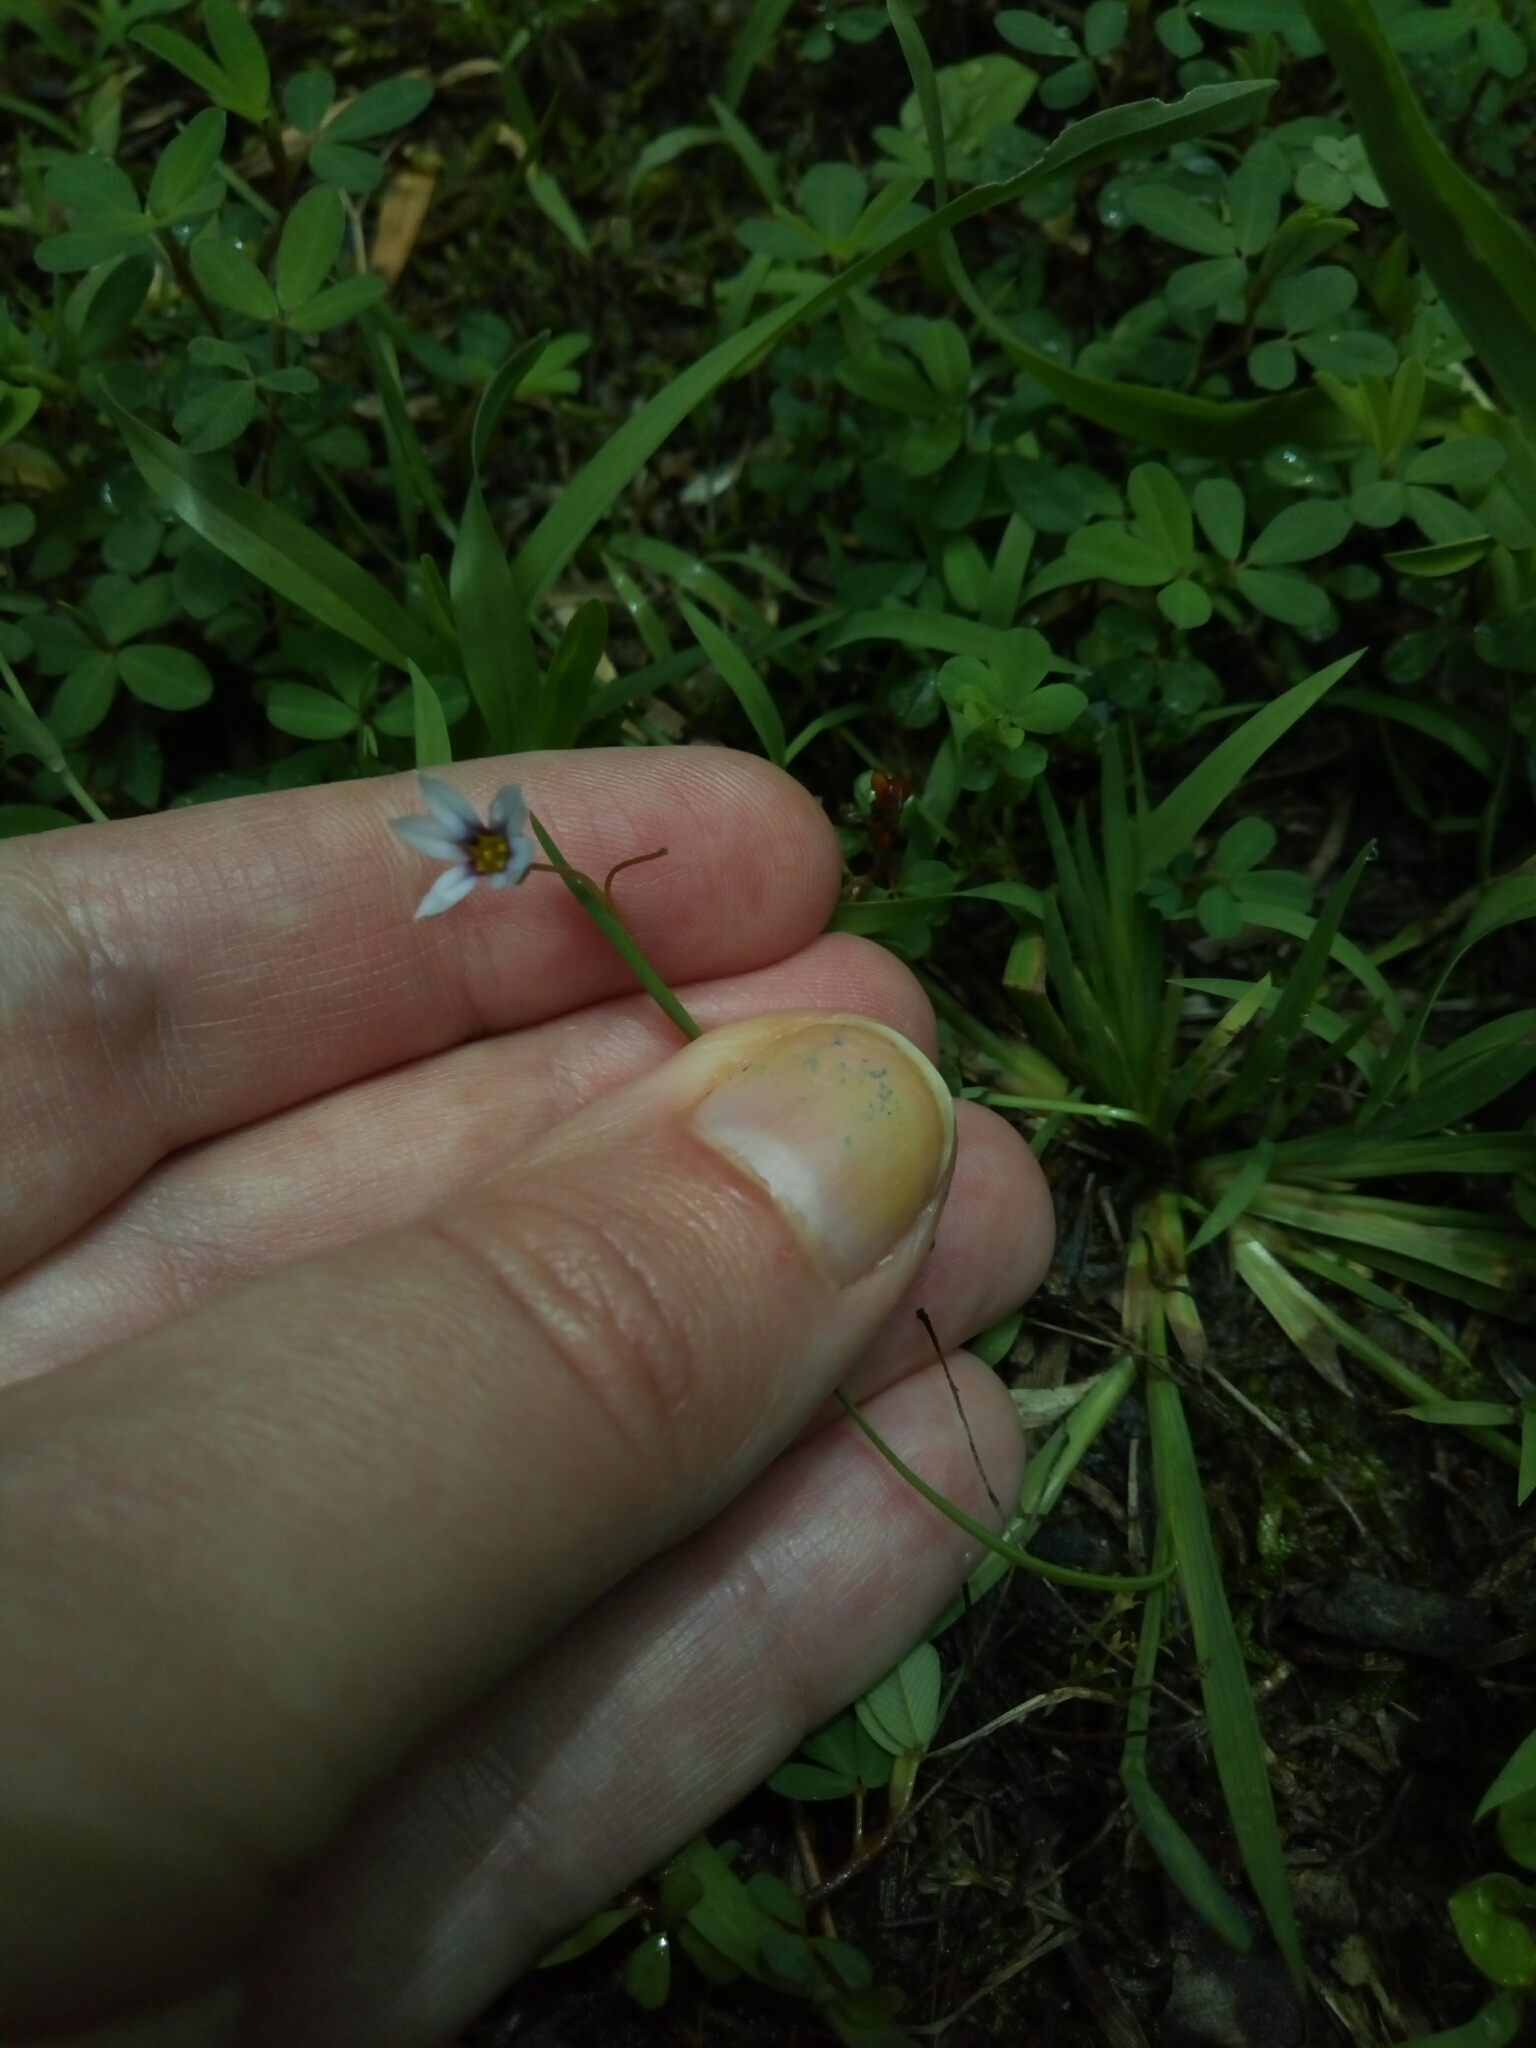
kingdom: Plantae
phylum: Tracheophyta
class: Liliopsida
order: Asparagales
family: Iridaceae
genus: Sisyrinchium
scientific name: Sisyrinchium micranthum
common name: Bermuda pigroot
